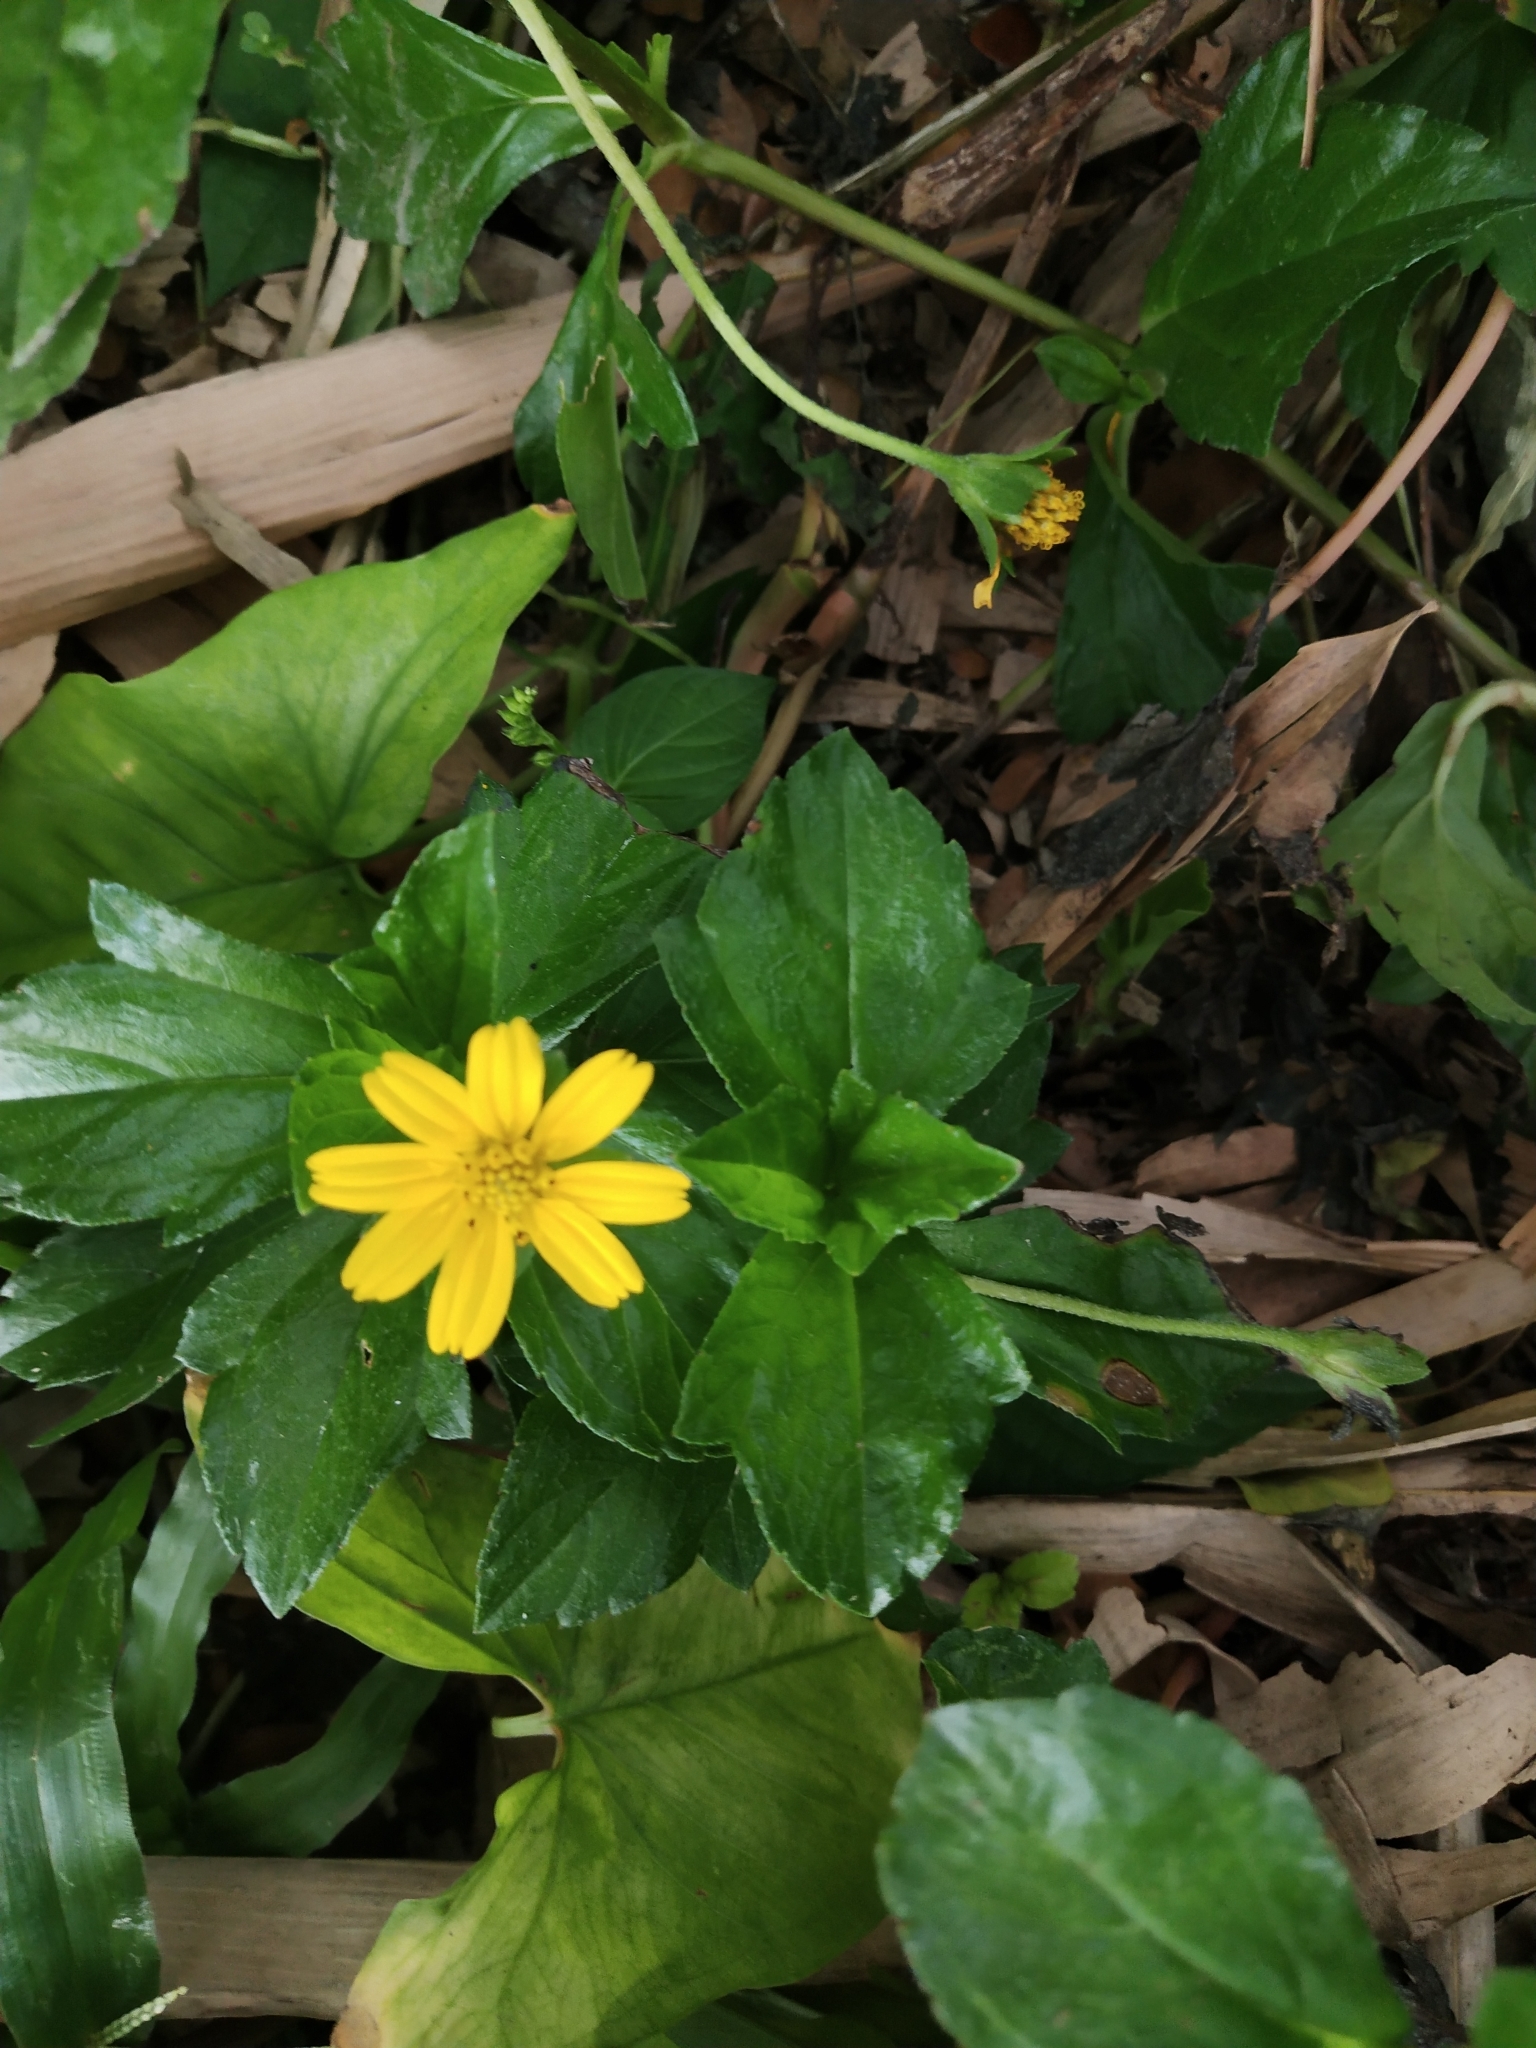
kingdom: Plantae
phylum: Tracheophyta
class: Magnoliopsida
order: Asterales
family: Asteraceae
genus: Sphagneticola
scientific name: Sphagneticola trilobata
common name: Bay biscayne creeping-oxeye
